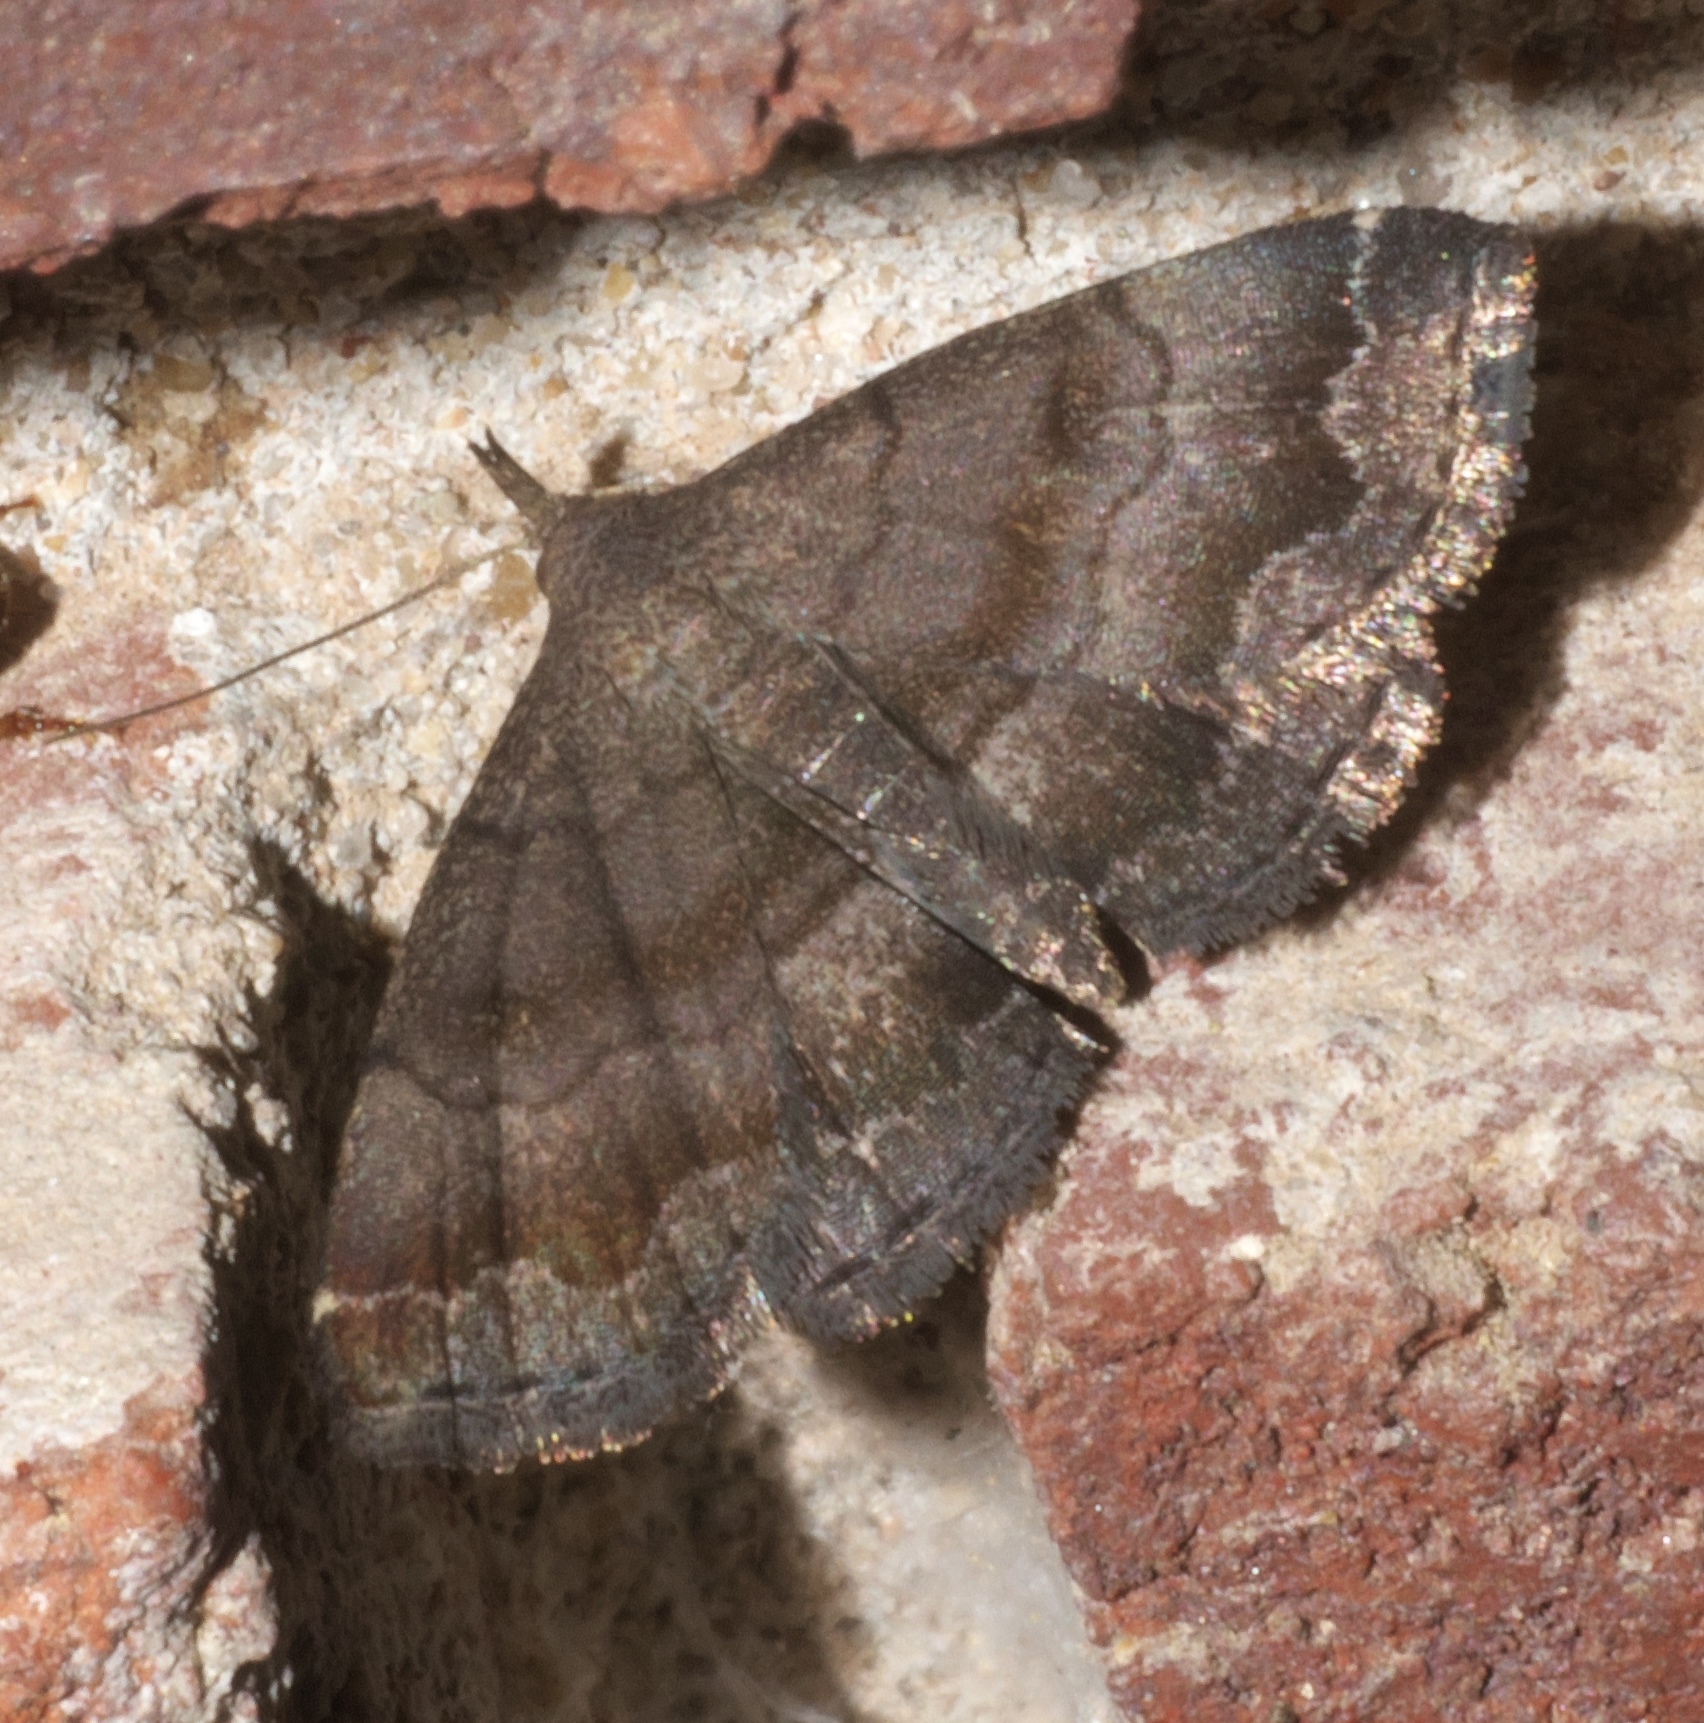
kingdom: Animalia
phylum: Arthropoda
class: Insecta
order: Lepidoptera
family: Erebidae
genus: Phalaenostola
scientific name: Phalaenostola larentioides
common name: Black-banded owlet
